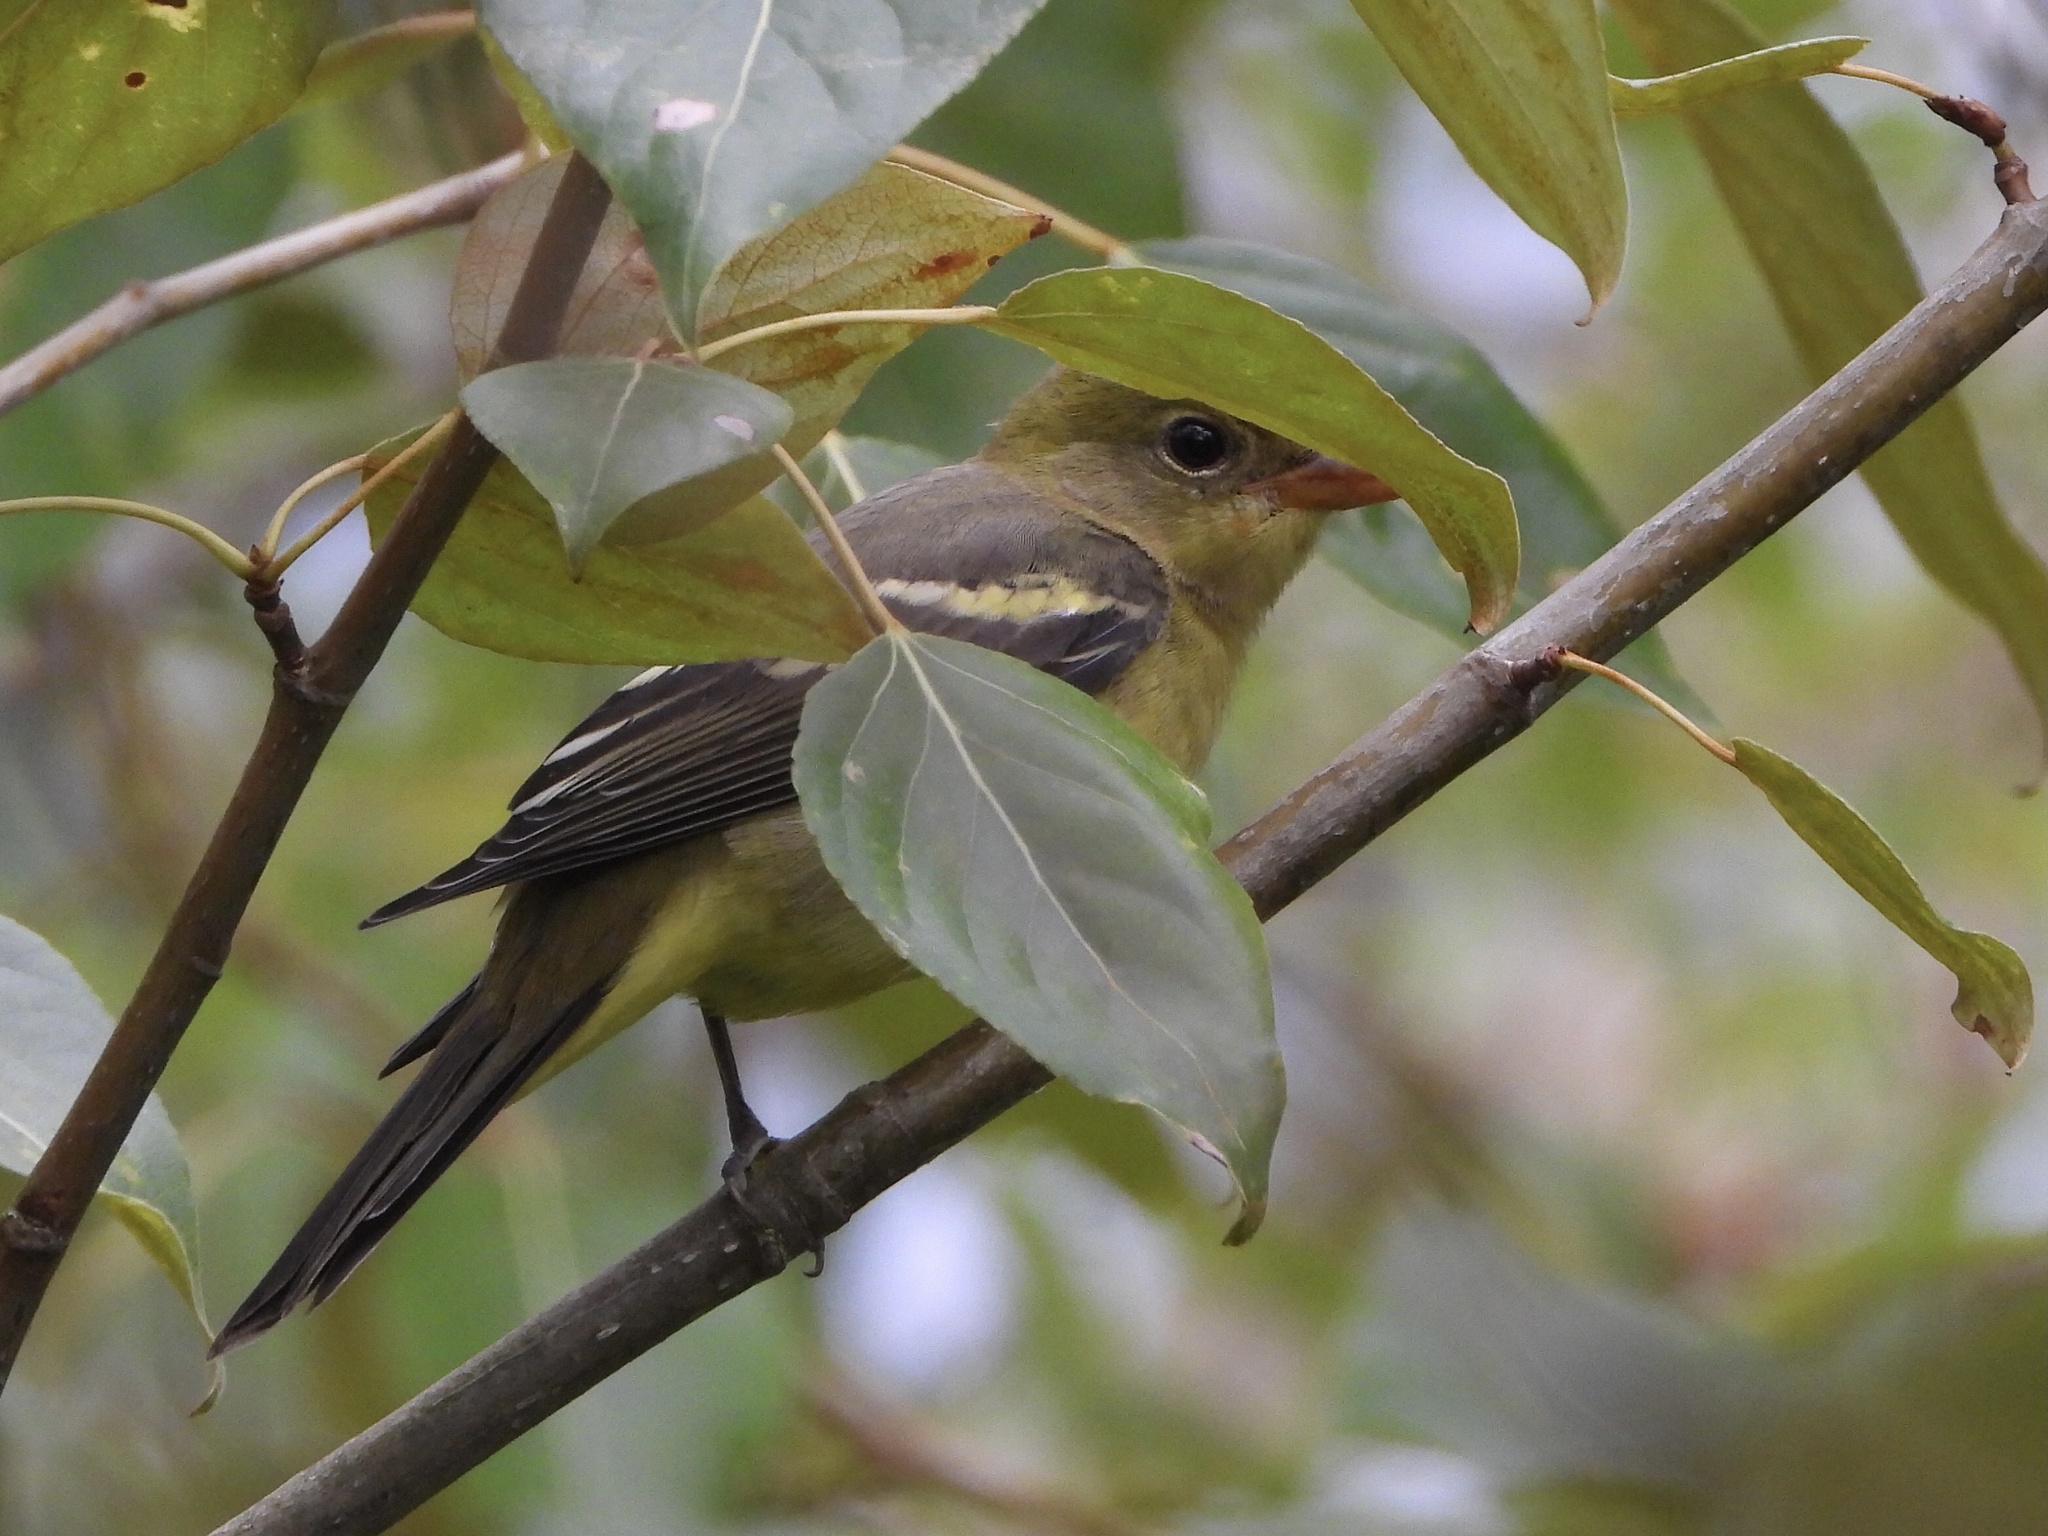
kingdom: Animalia
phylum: Chordata
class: Aves
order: Passeriformes
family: Cardinalidae
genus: Piranga
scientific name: Piranga ludoviciana
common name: Western tanager
